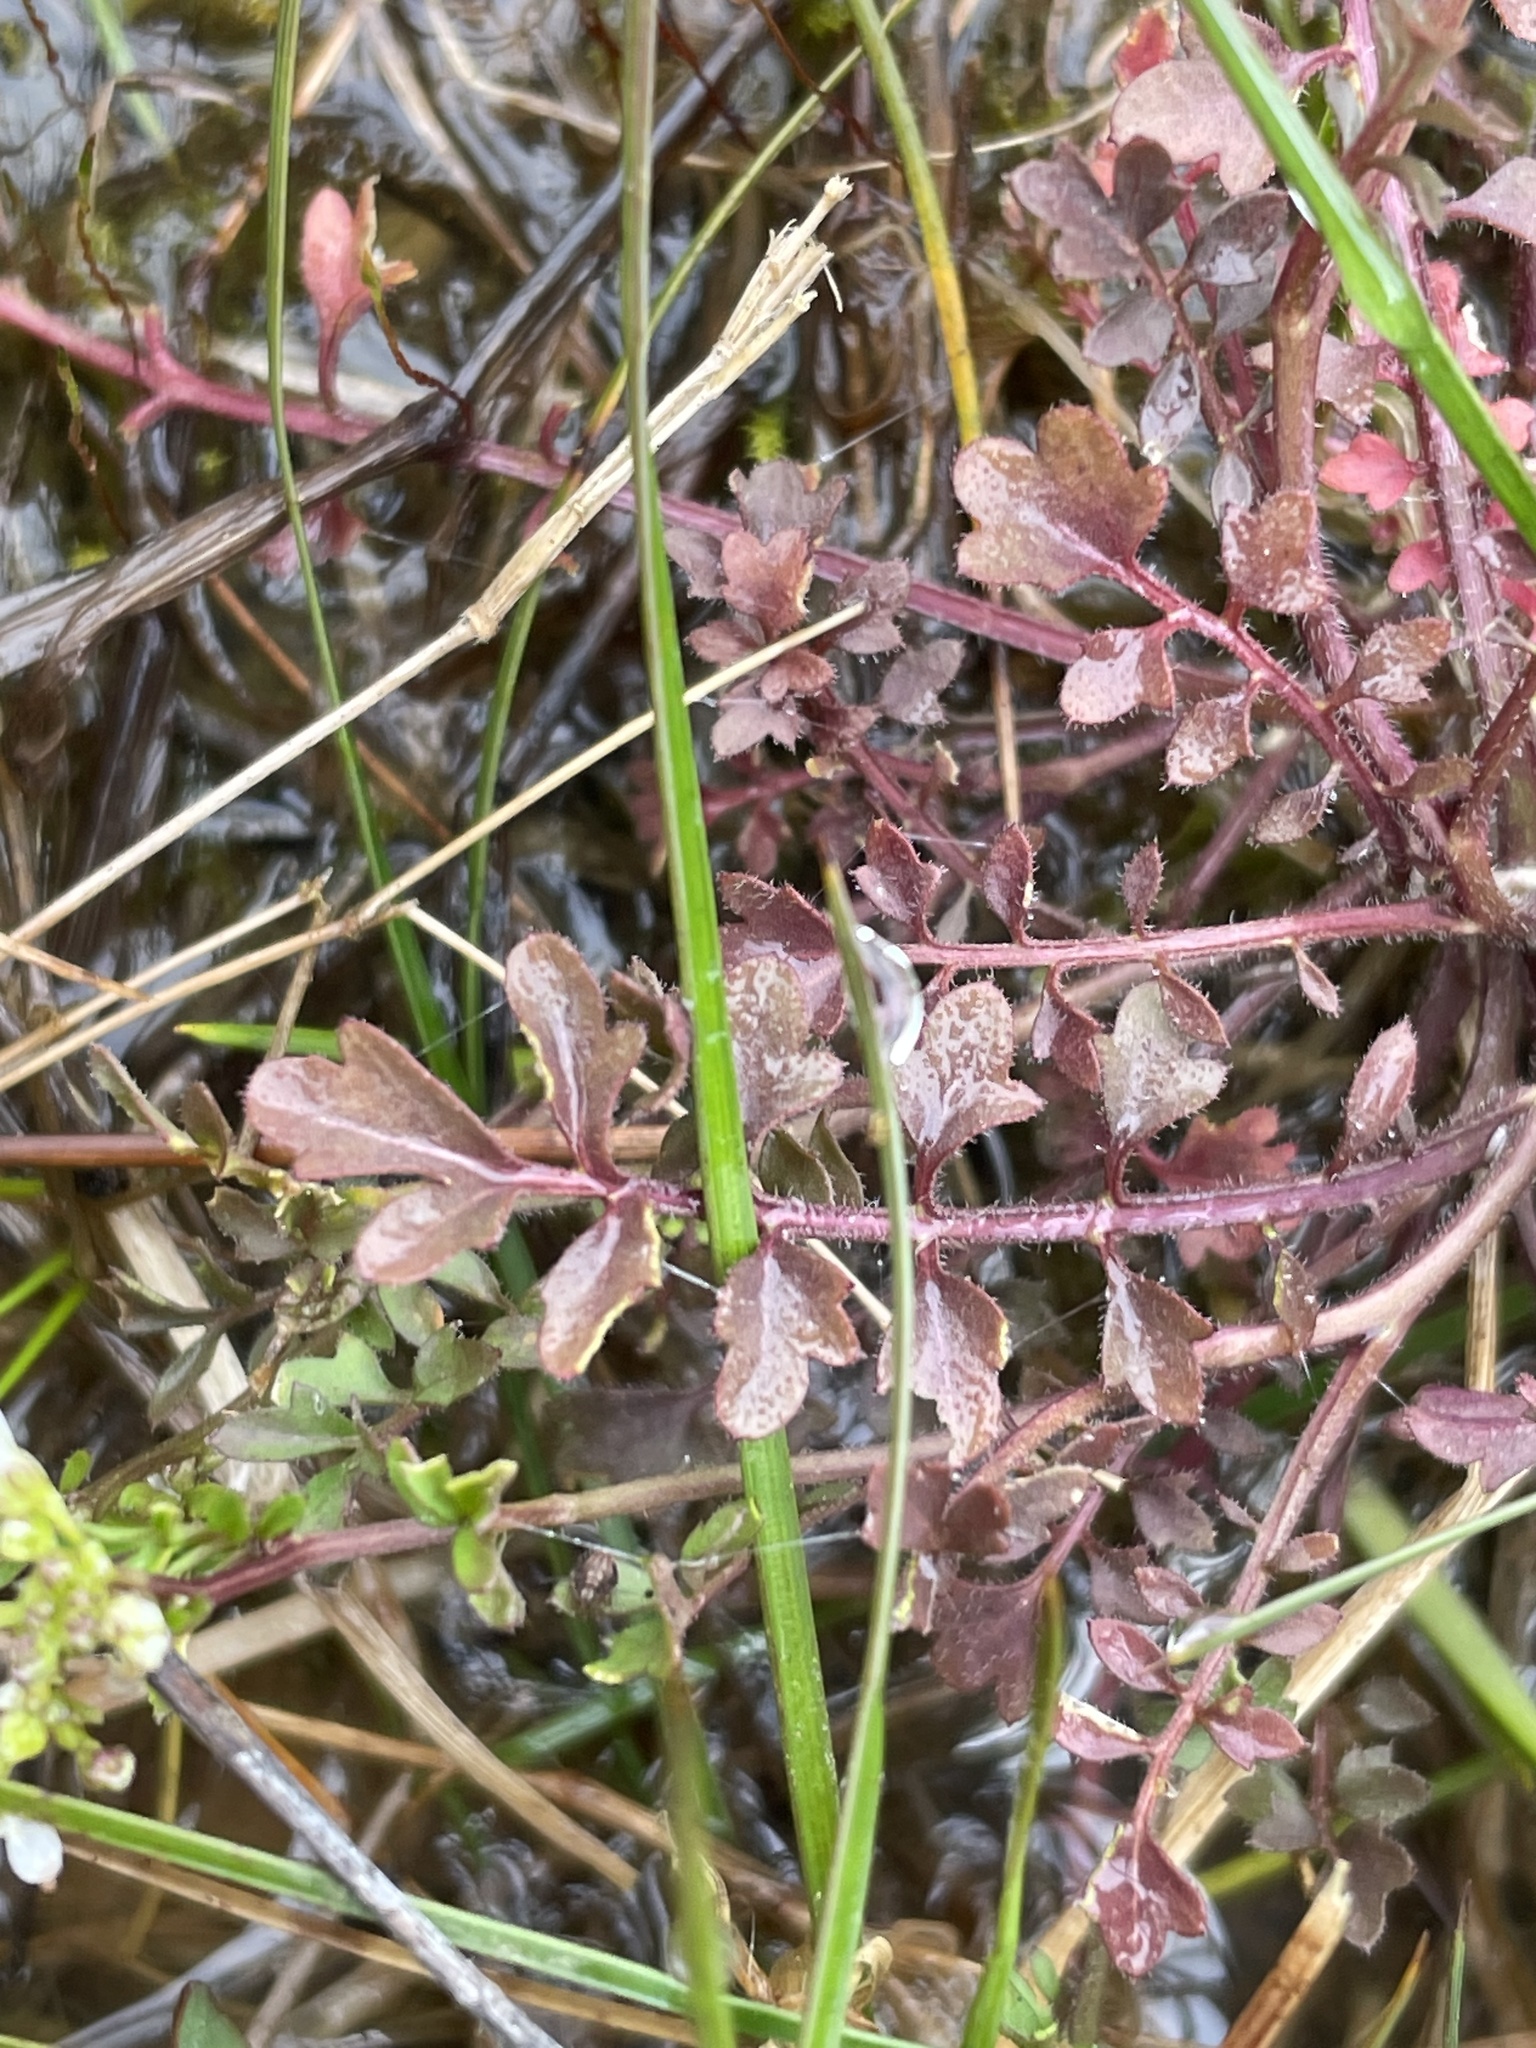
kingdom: Plantae
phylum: Tracheophyta
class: Magnoliopsida
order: Brassicales
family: Brassicaceae
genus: Cardamine
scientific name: Cardamine occulta
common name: Asian wavy bittercress
